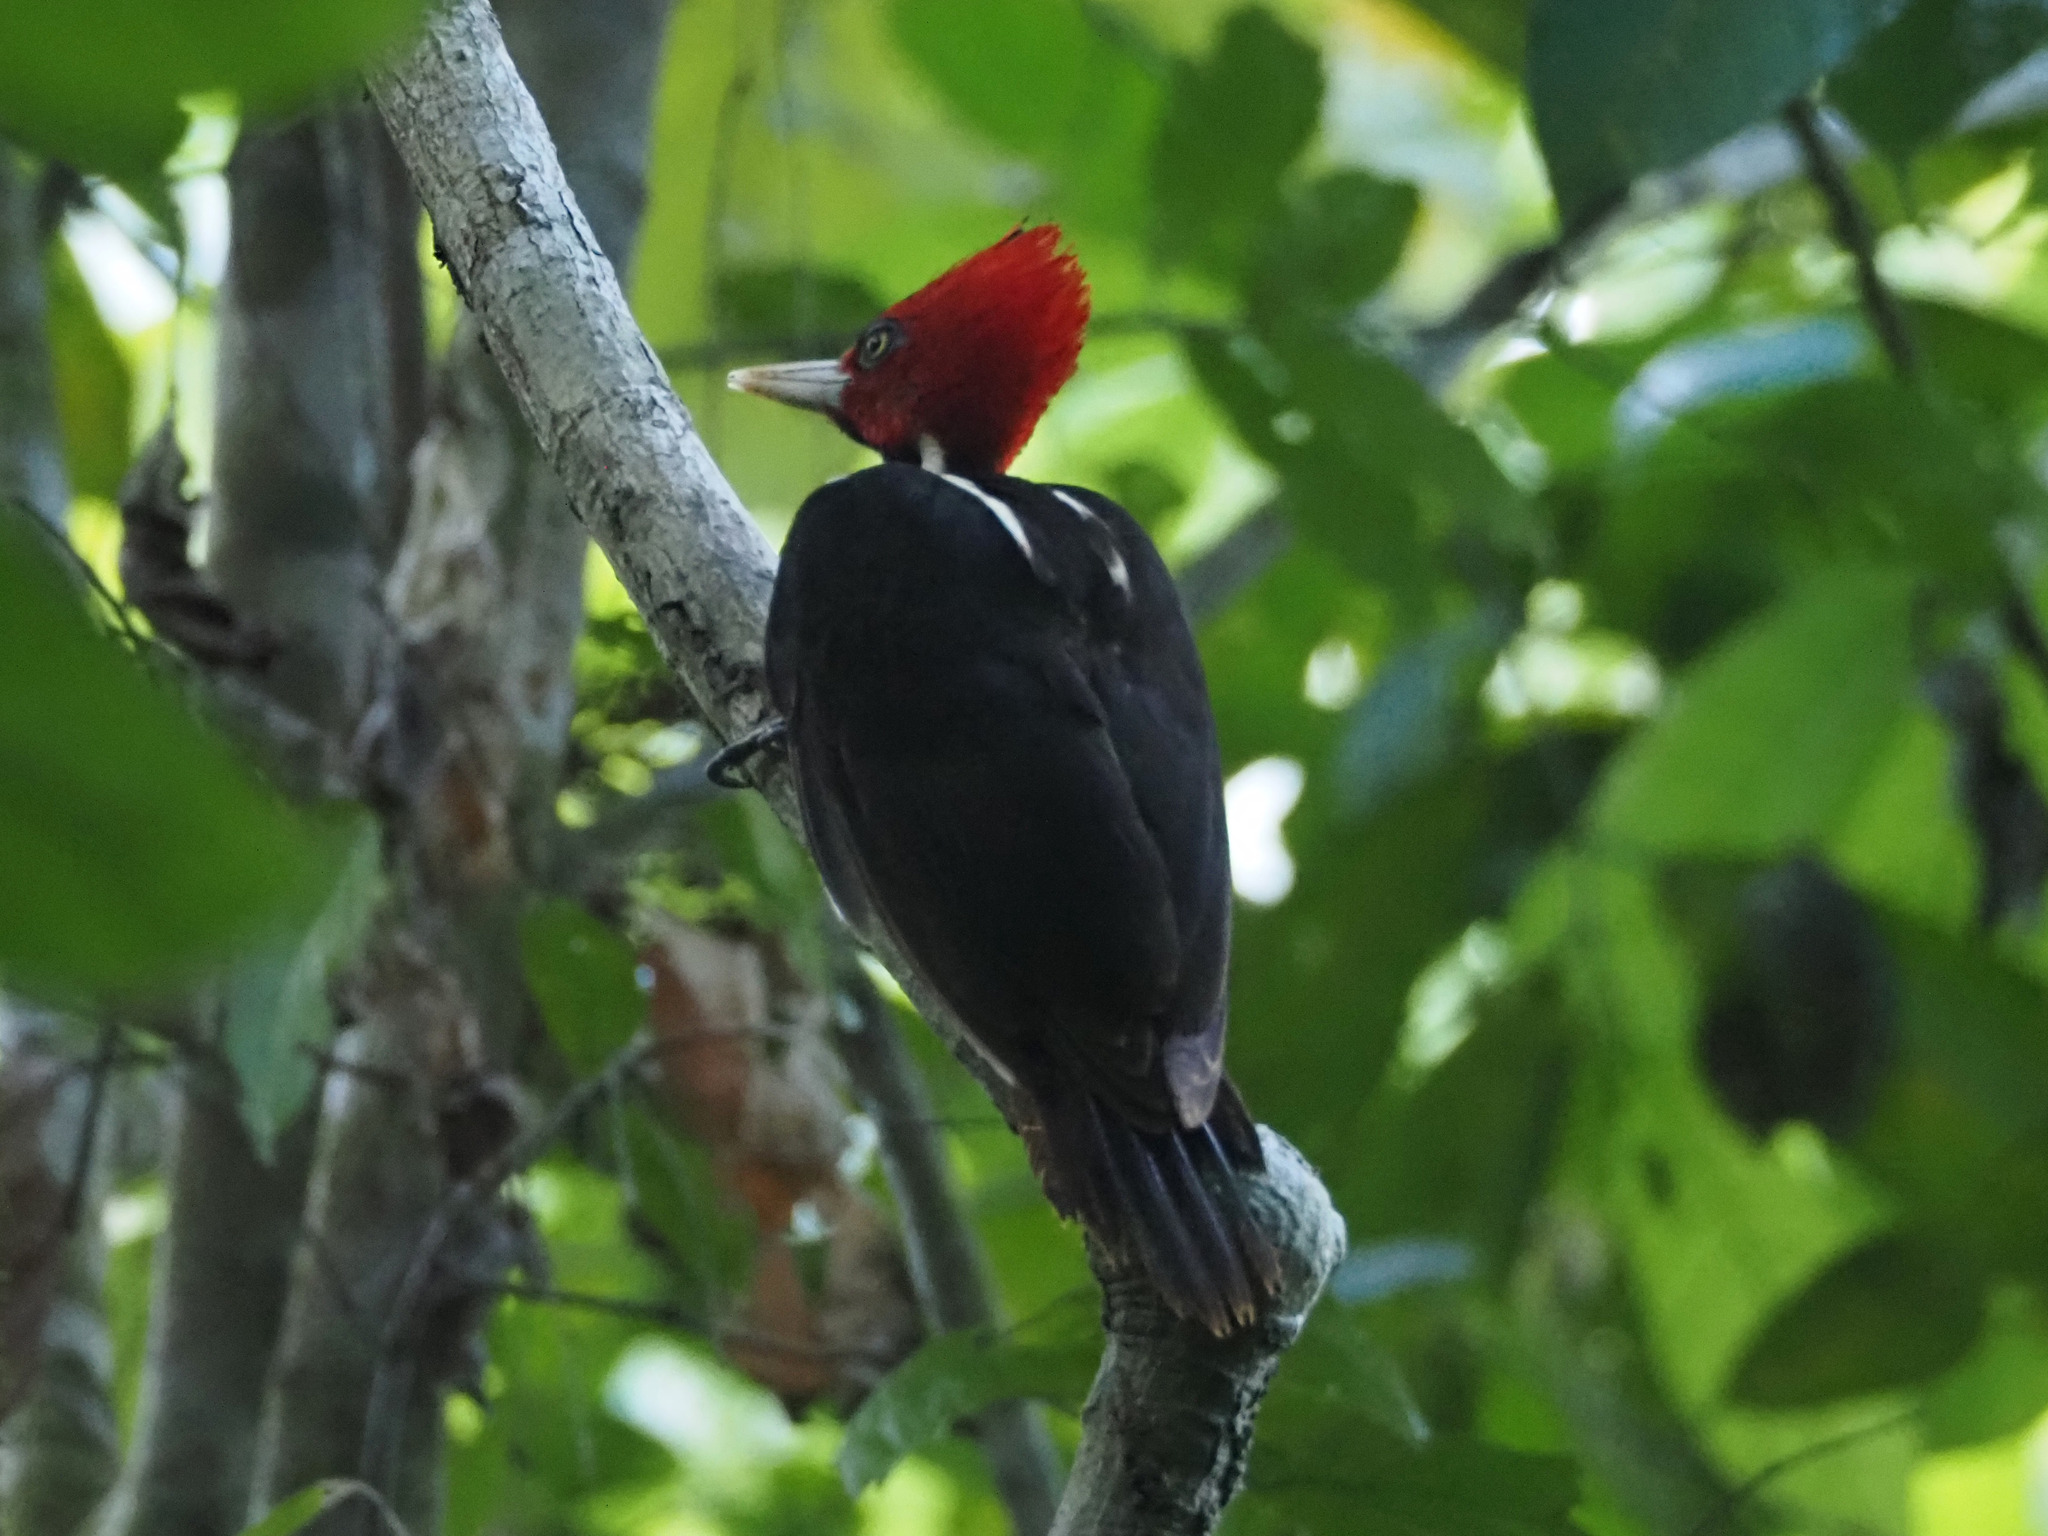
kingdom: Animalia
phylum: Chordata
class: Aves
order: Piciformes
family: Picidae
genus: Campephilus
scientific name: Campephilus guatemalensis
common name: Pale-billed woodpecker
